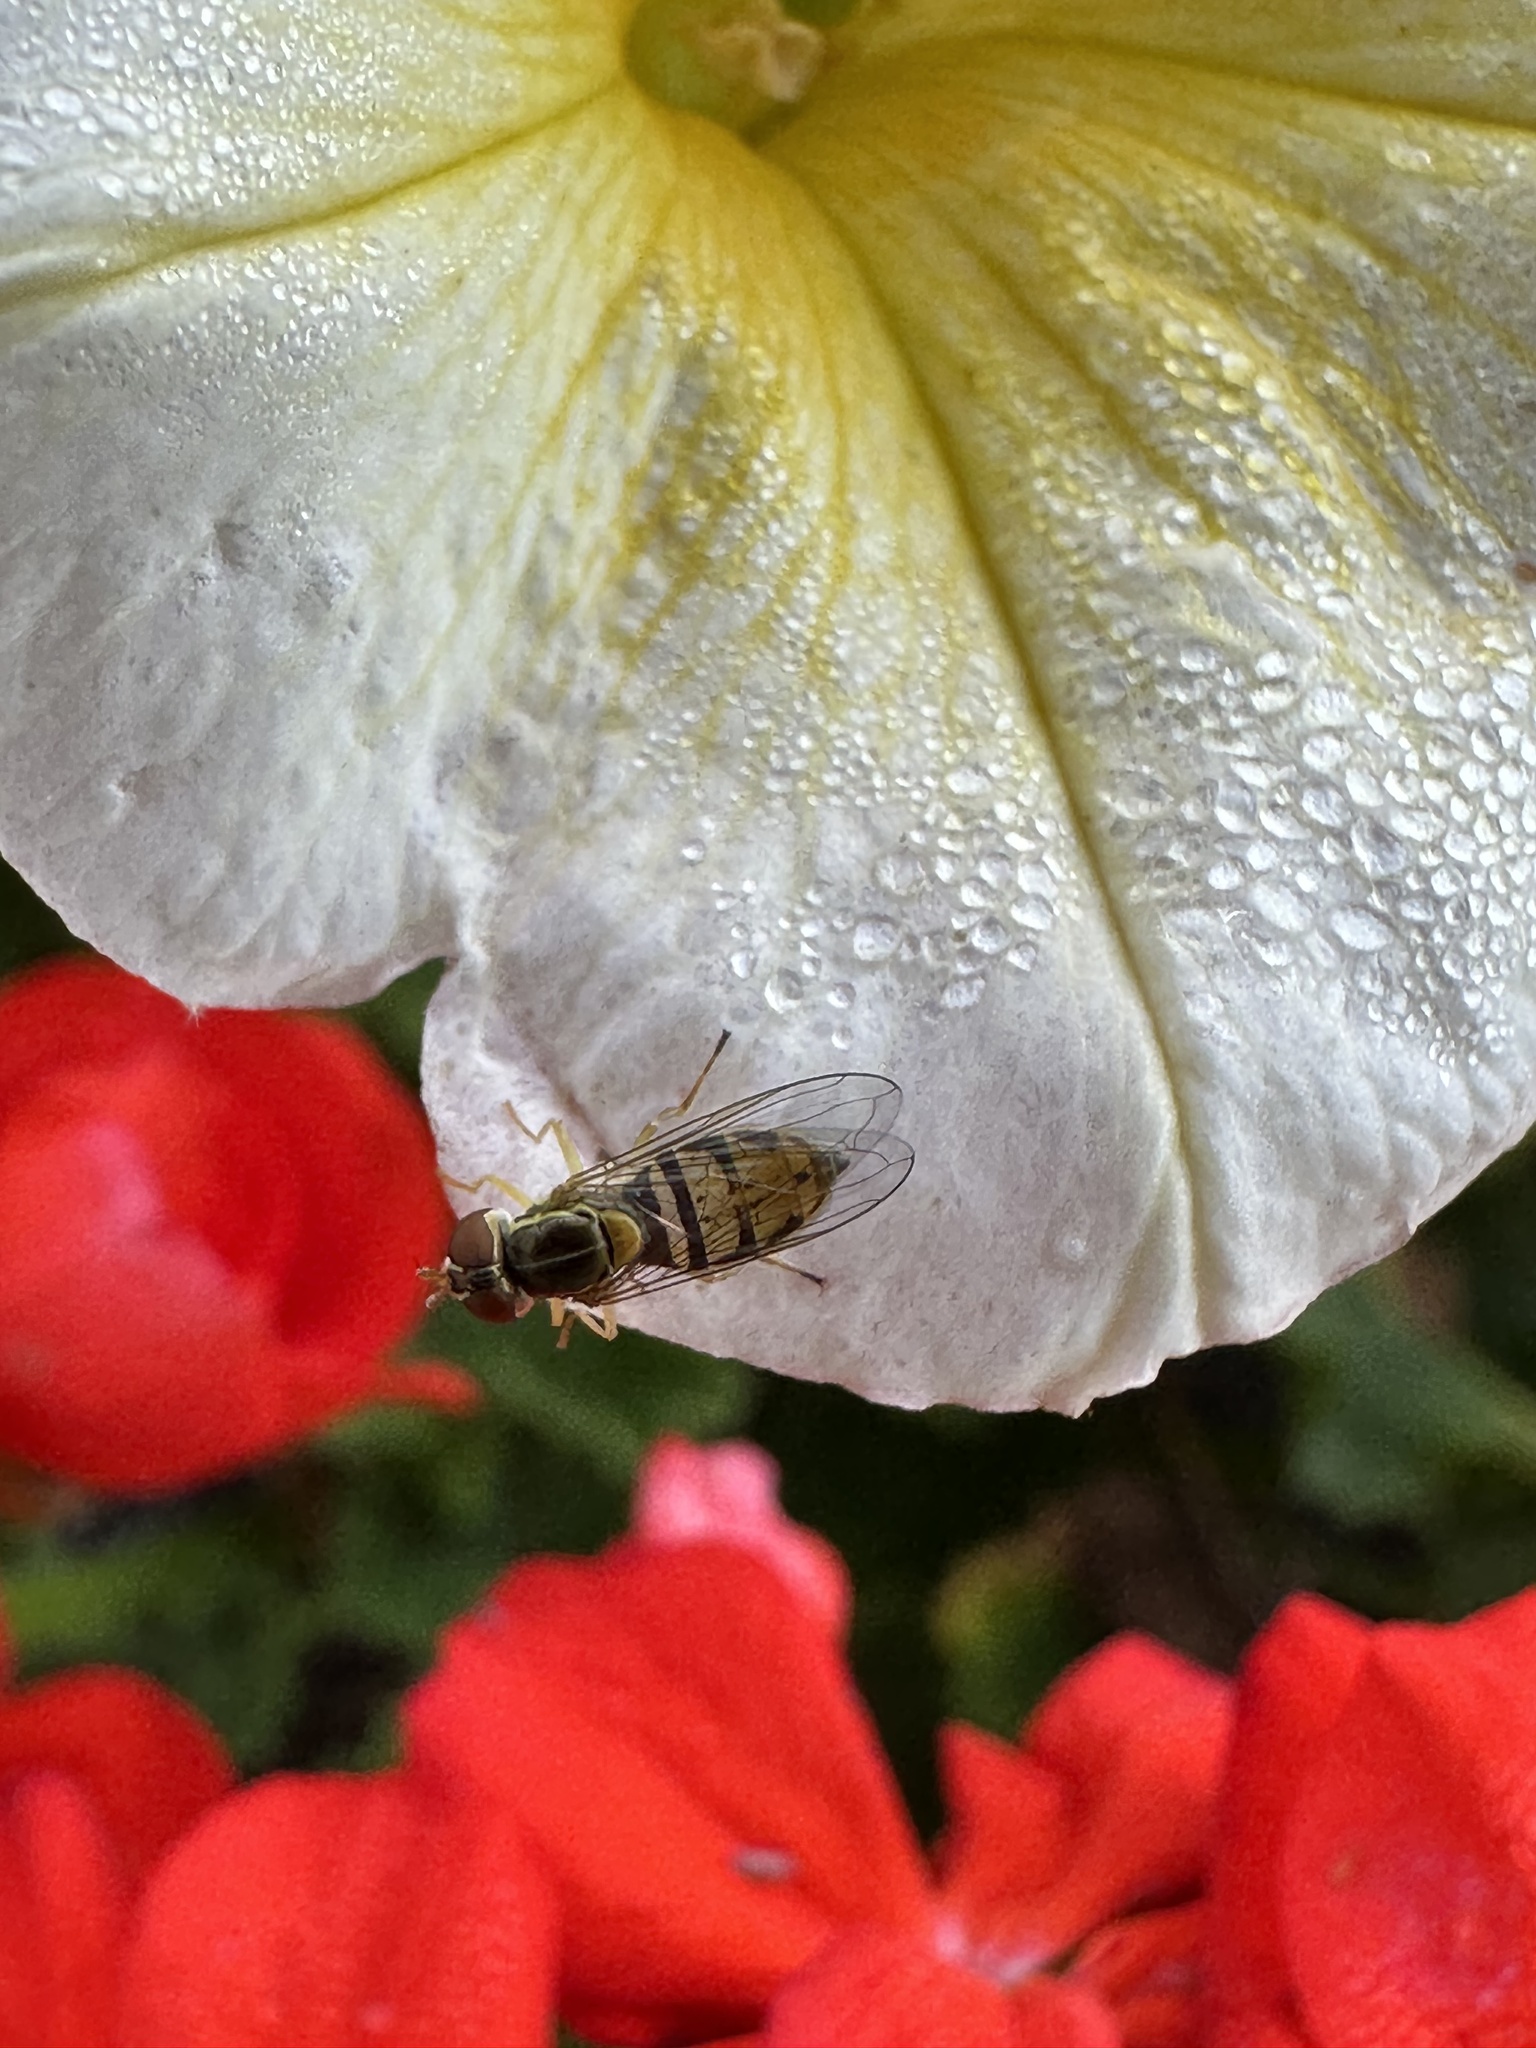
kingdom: Animalia
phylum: Arthropoda
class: Insecta
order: Diptera
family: Syrphidae
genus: Toxomerus
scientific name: Toxomerus marginatus
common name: Syrphid fly
